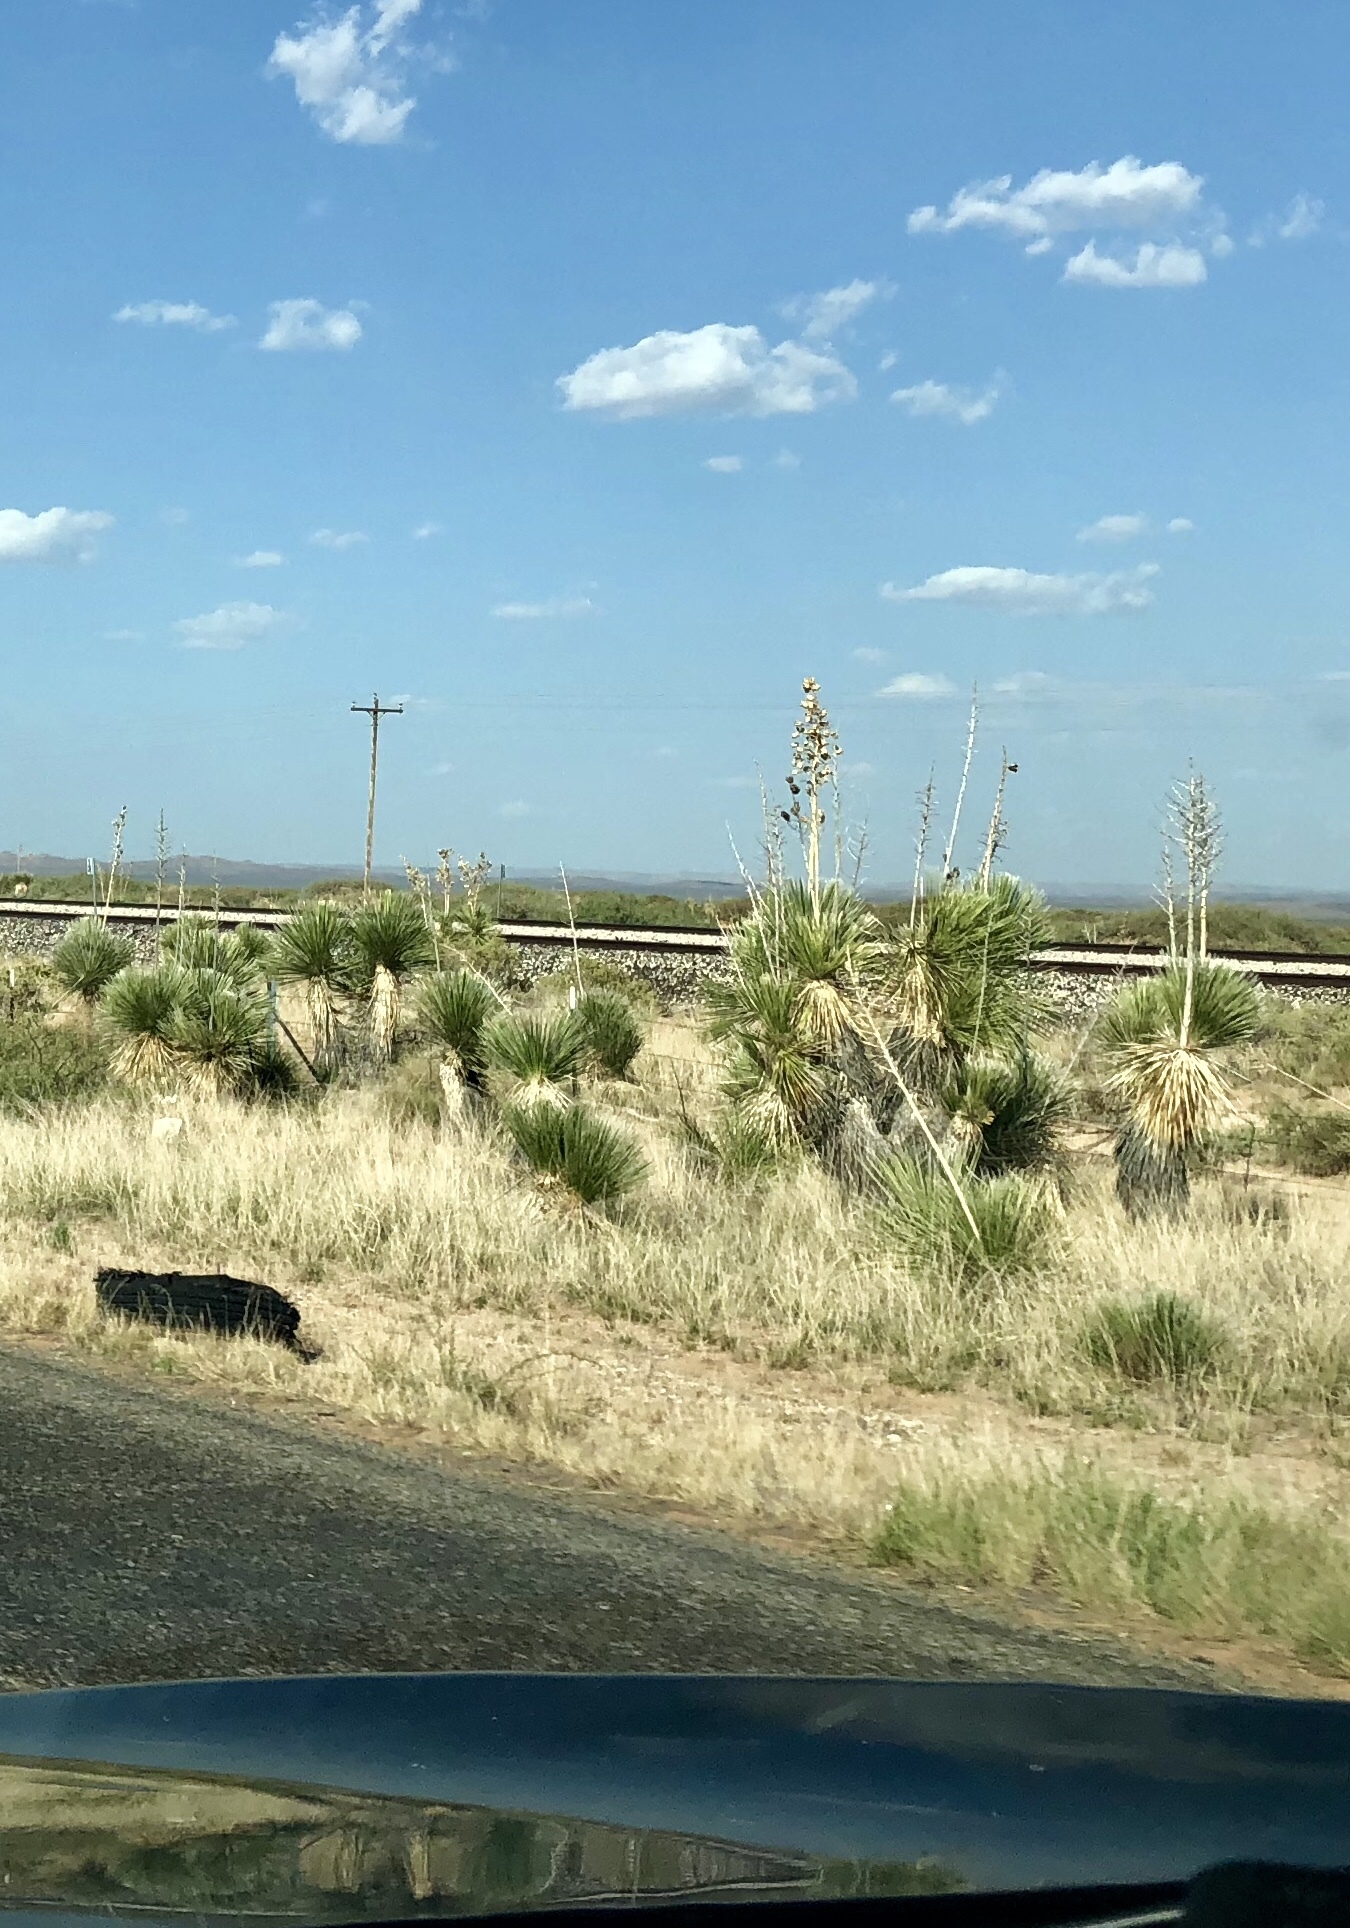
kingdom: Plantae
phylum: Tracheophyta
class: Liliopsida
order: Asparagales
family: Asparagaceae
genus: Yucca
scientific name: Yucca elata
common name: Palmella
